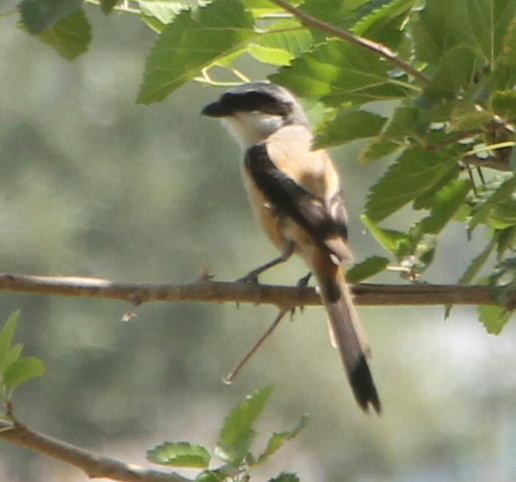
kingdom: Animalia
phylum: Chordata
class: Aves
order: Passeriformes
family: Laniidae
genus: Lanius
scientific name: Lanius schach
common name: Long-tailed shrike
